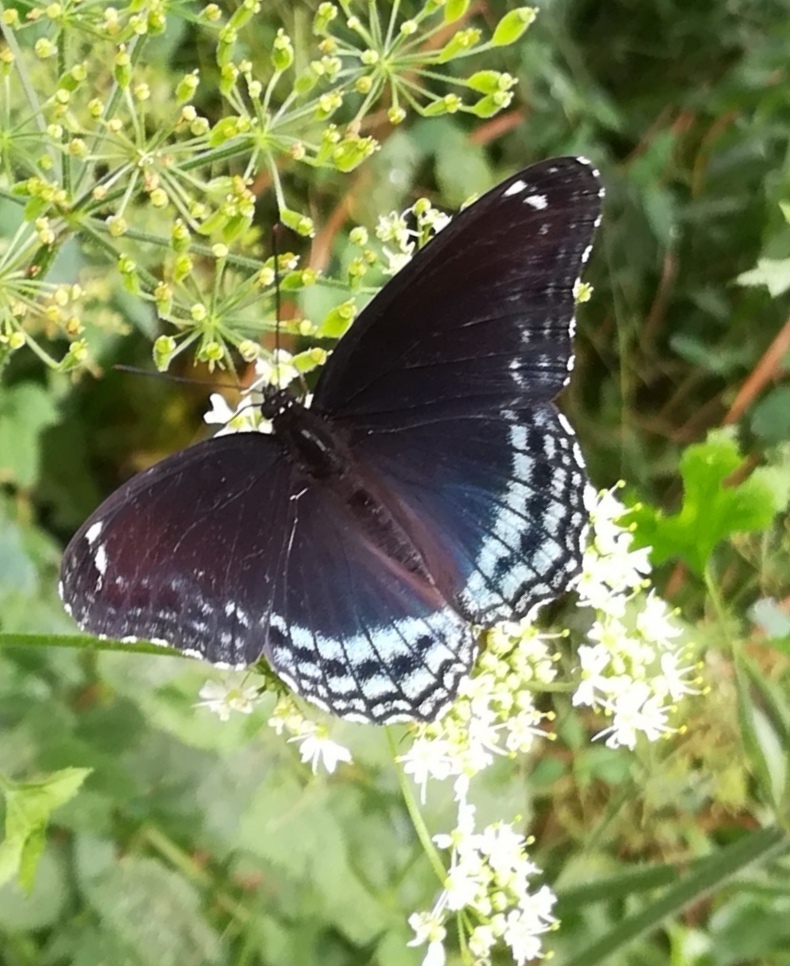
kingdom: Animalia
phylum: Arthropoda
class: Insecta
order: Lepidoptera
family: Nymphalidae
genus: Limenitis
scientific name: Limenitis astyanax
